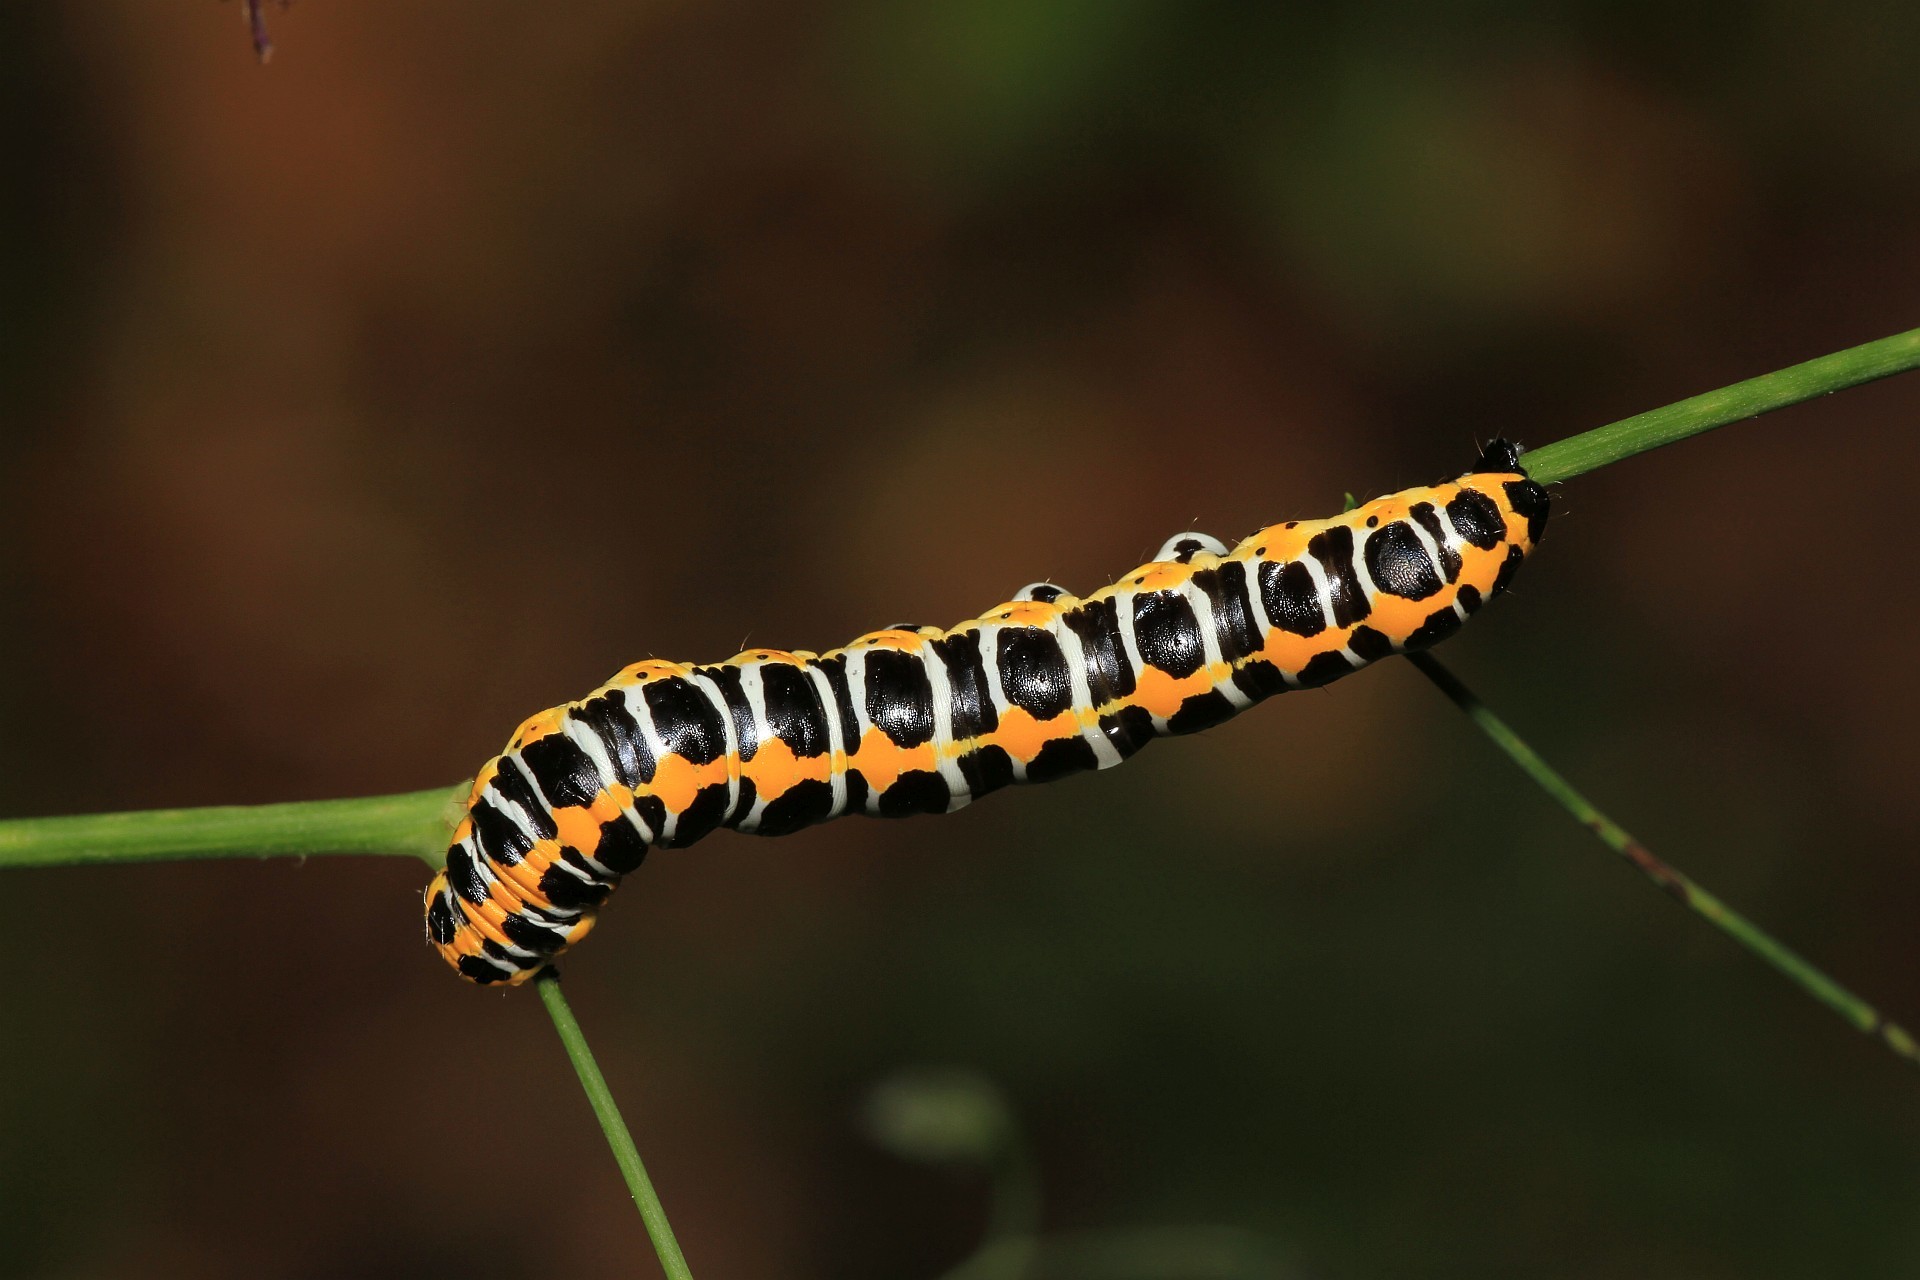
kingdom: Animalia
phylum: Arthropoda
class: Insecta
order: Lepidoptera
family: Noctuidae
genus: Cucullia
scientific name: Cucullia lactucae
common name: Lettuce shark
